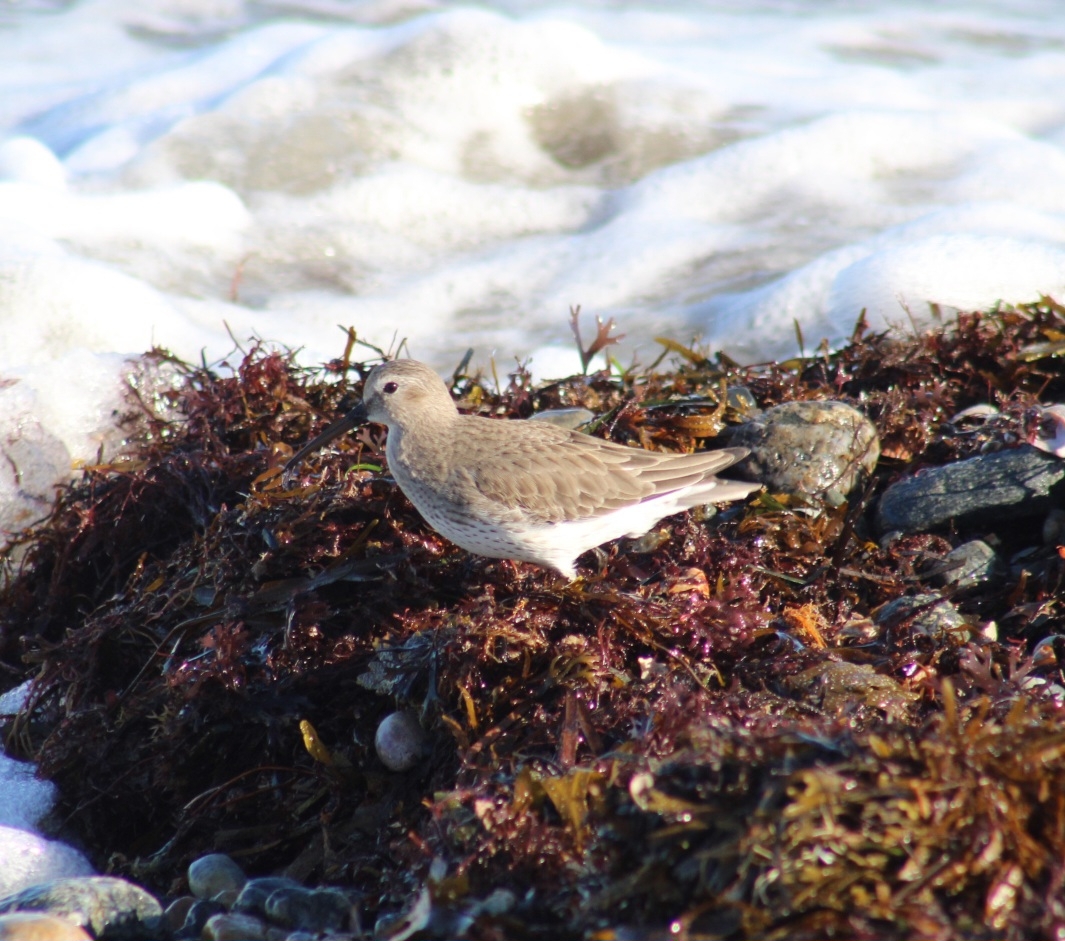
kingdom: Animalia
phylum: Chordata
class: Aves
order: Charadriiformes
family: Scolopacidae
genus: Calidris
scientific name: Calidris alpina
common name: Dunlin
